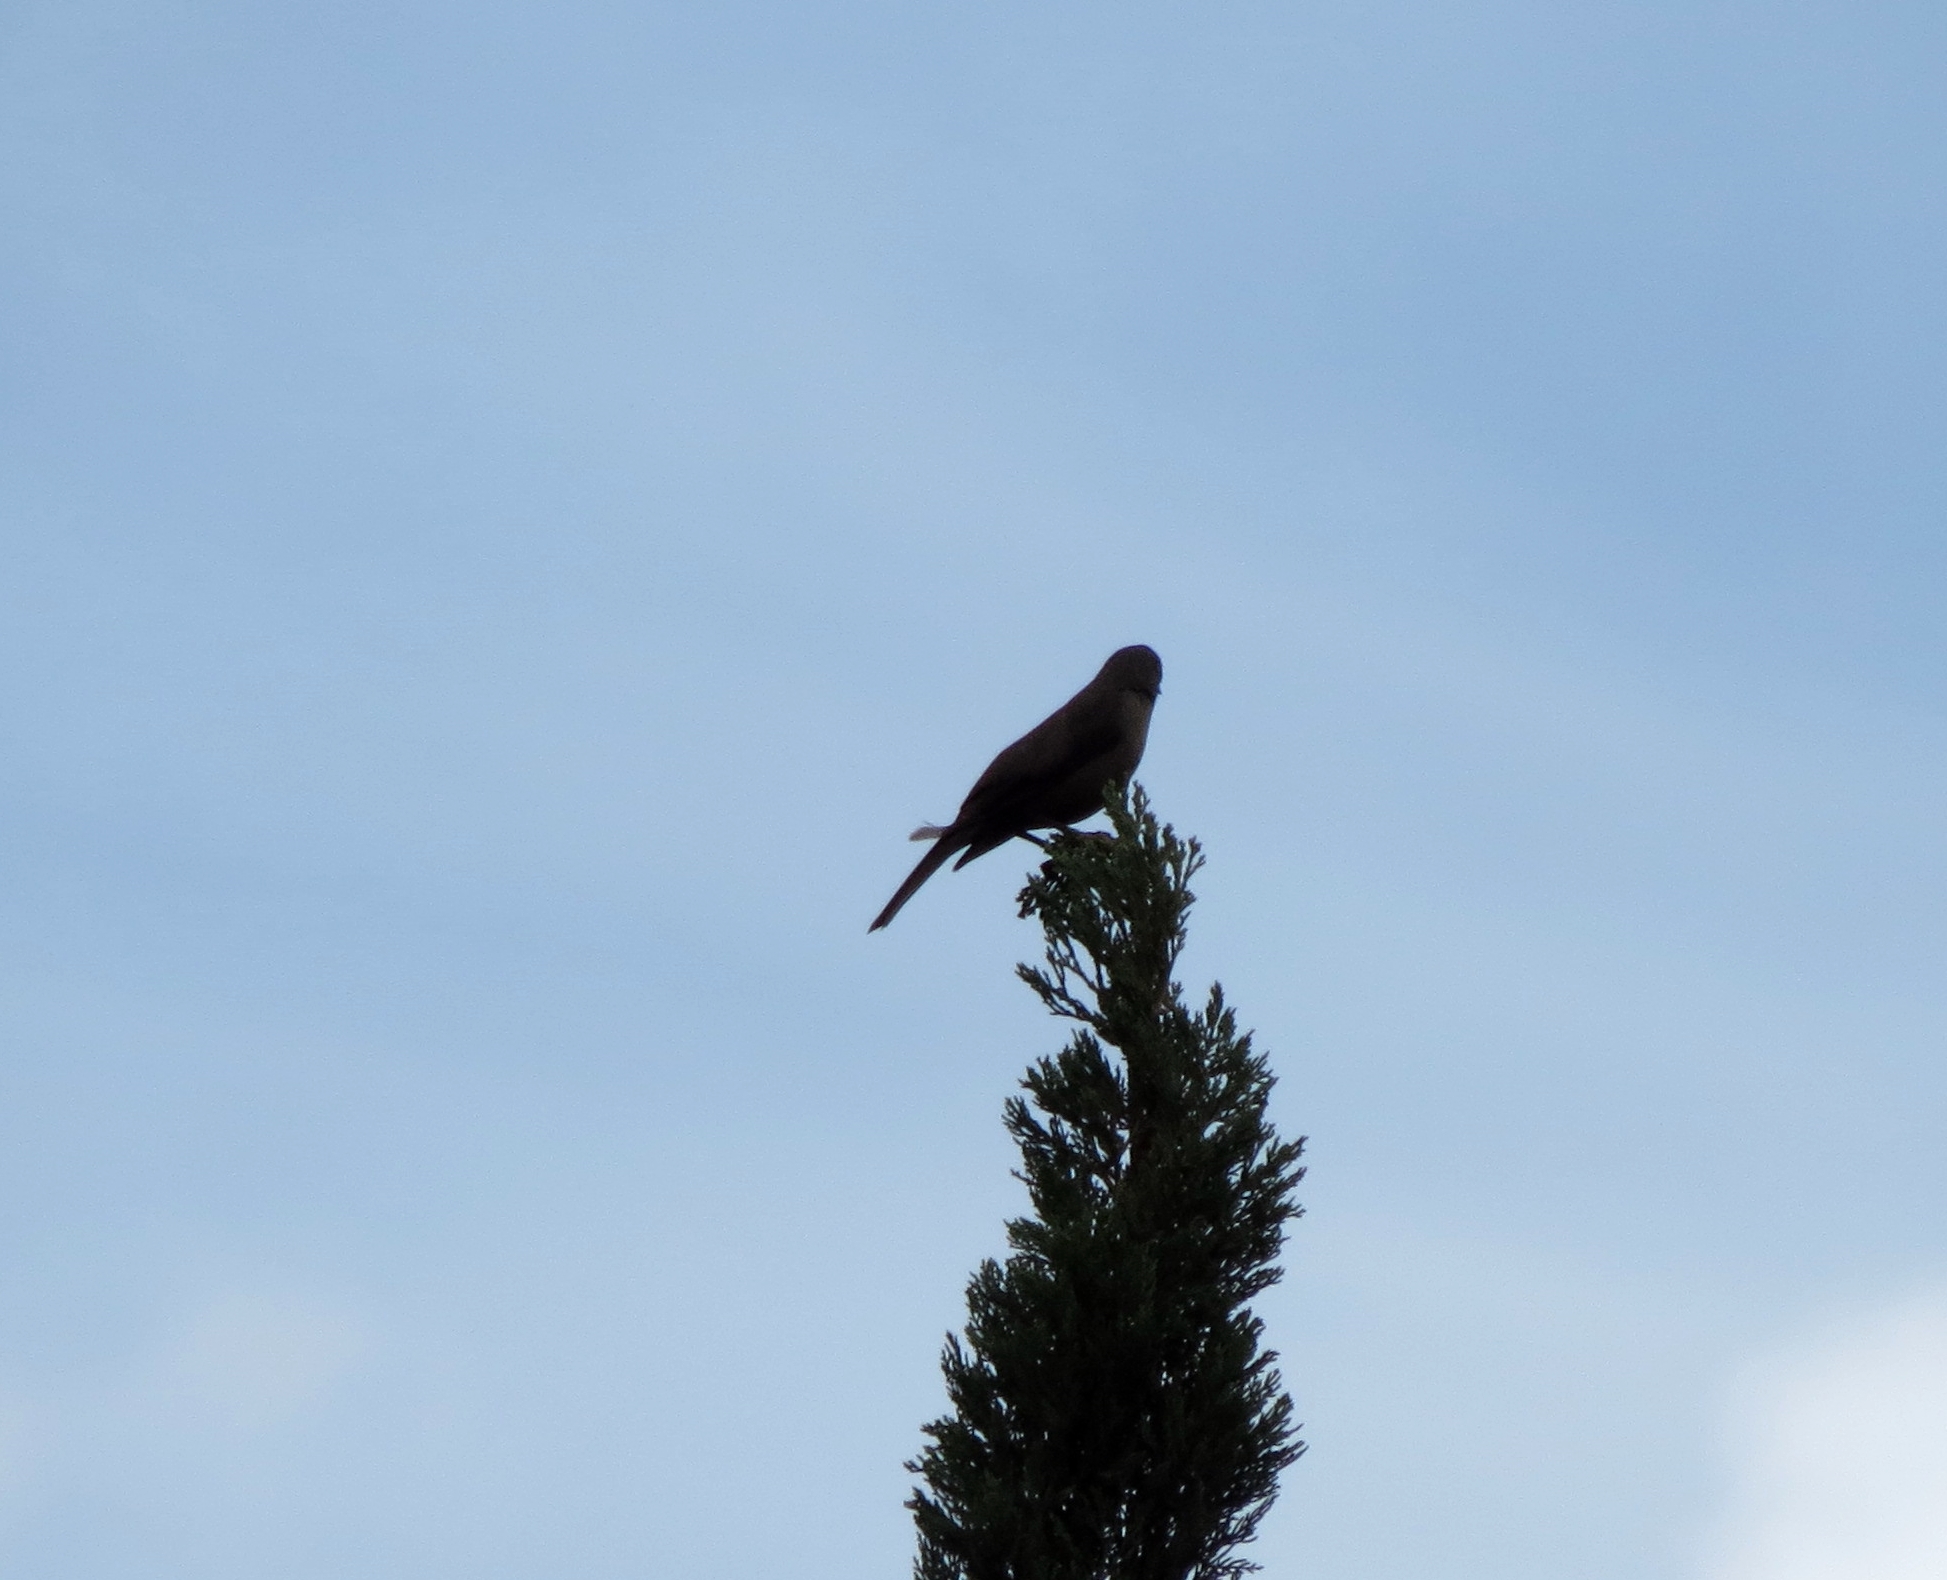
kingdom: Animalia
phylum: Chordata
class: Aves
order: Passeriformes
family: Icteridae
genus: Molothrus
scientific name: Molothrus bonariensis
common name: Shiny cowbird
